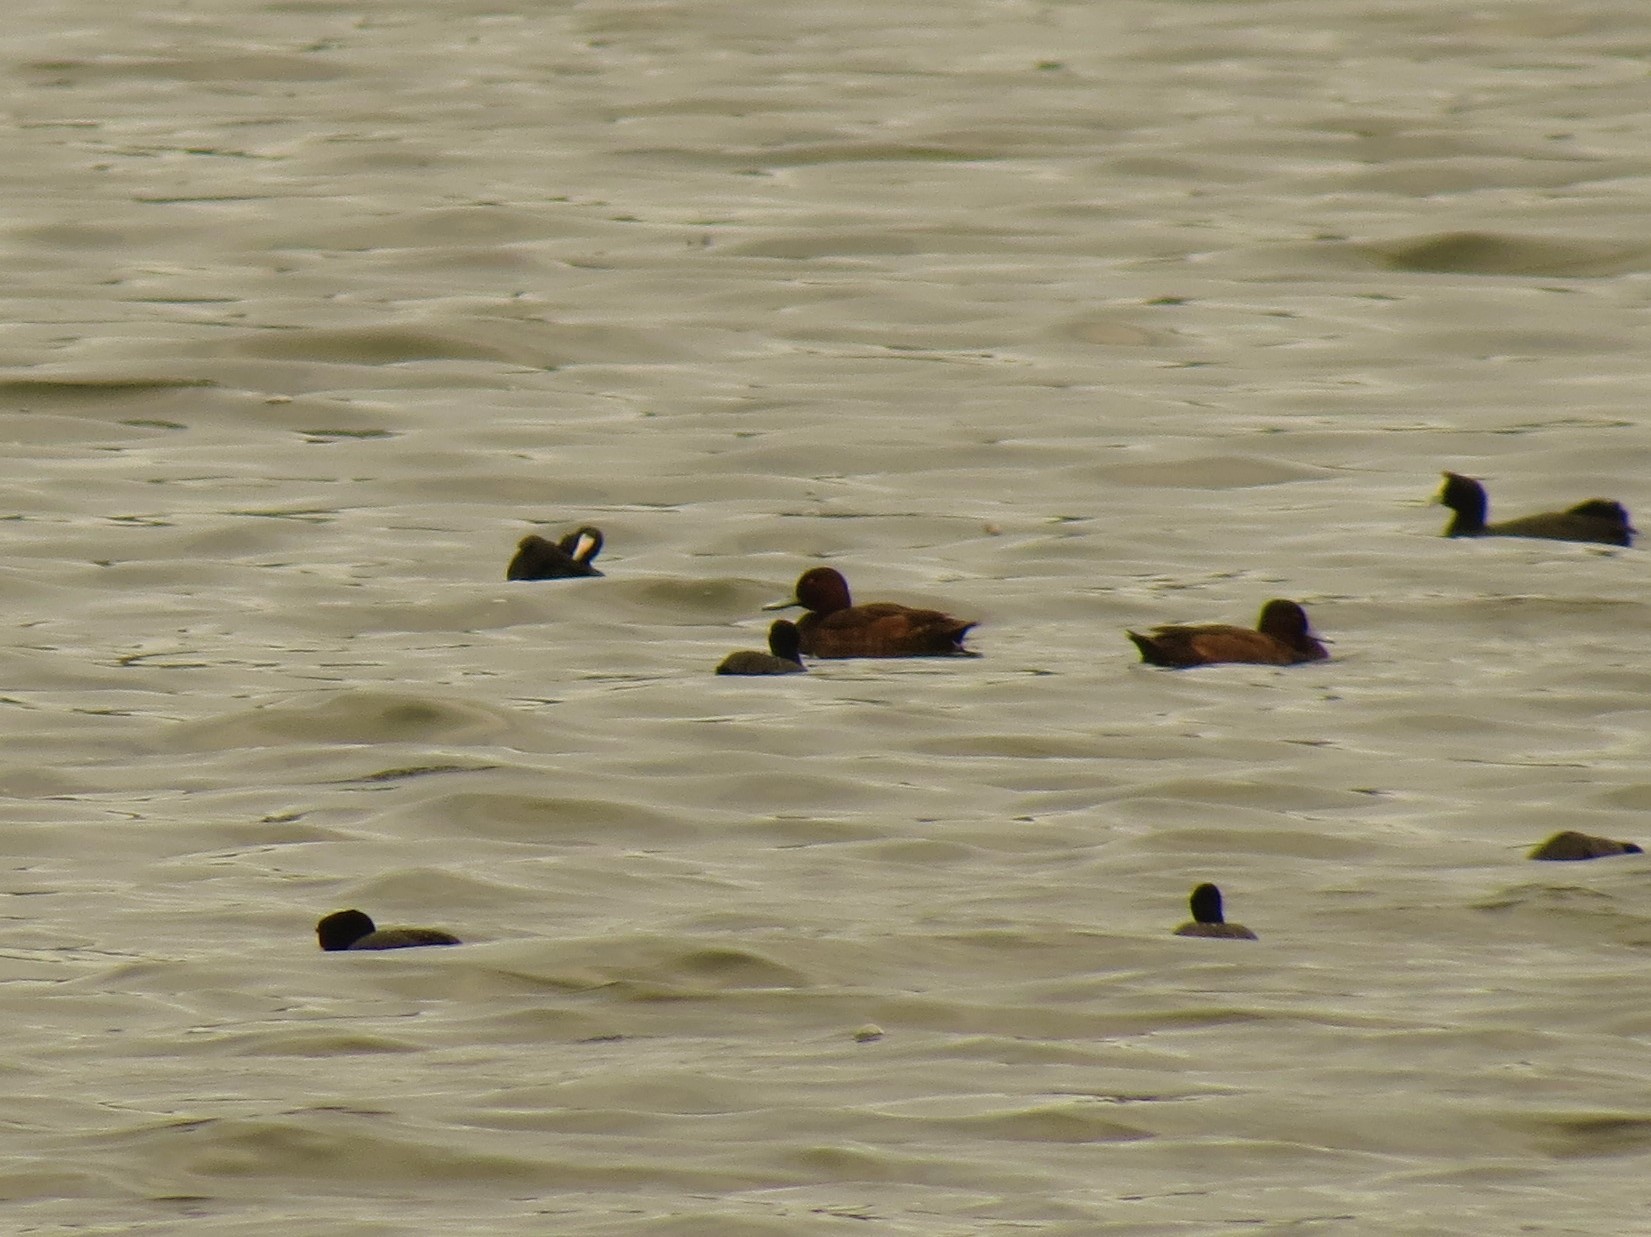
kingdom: Animalia
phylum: Chordata
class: Aves
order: Anseriformes
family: Anatidae
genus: Netta
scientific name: Netta erythrophthalma
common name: Southern pochard
